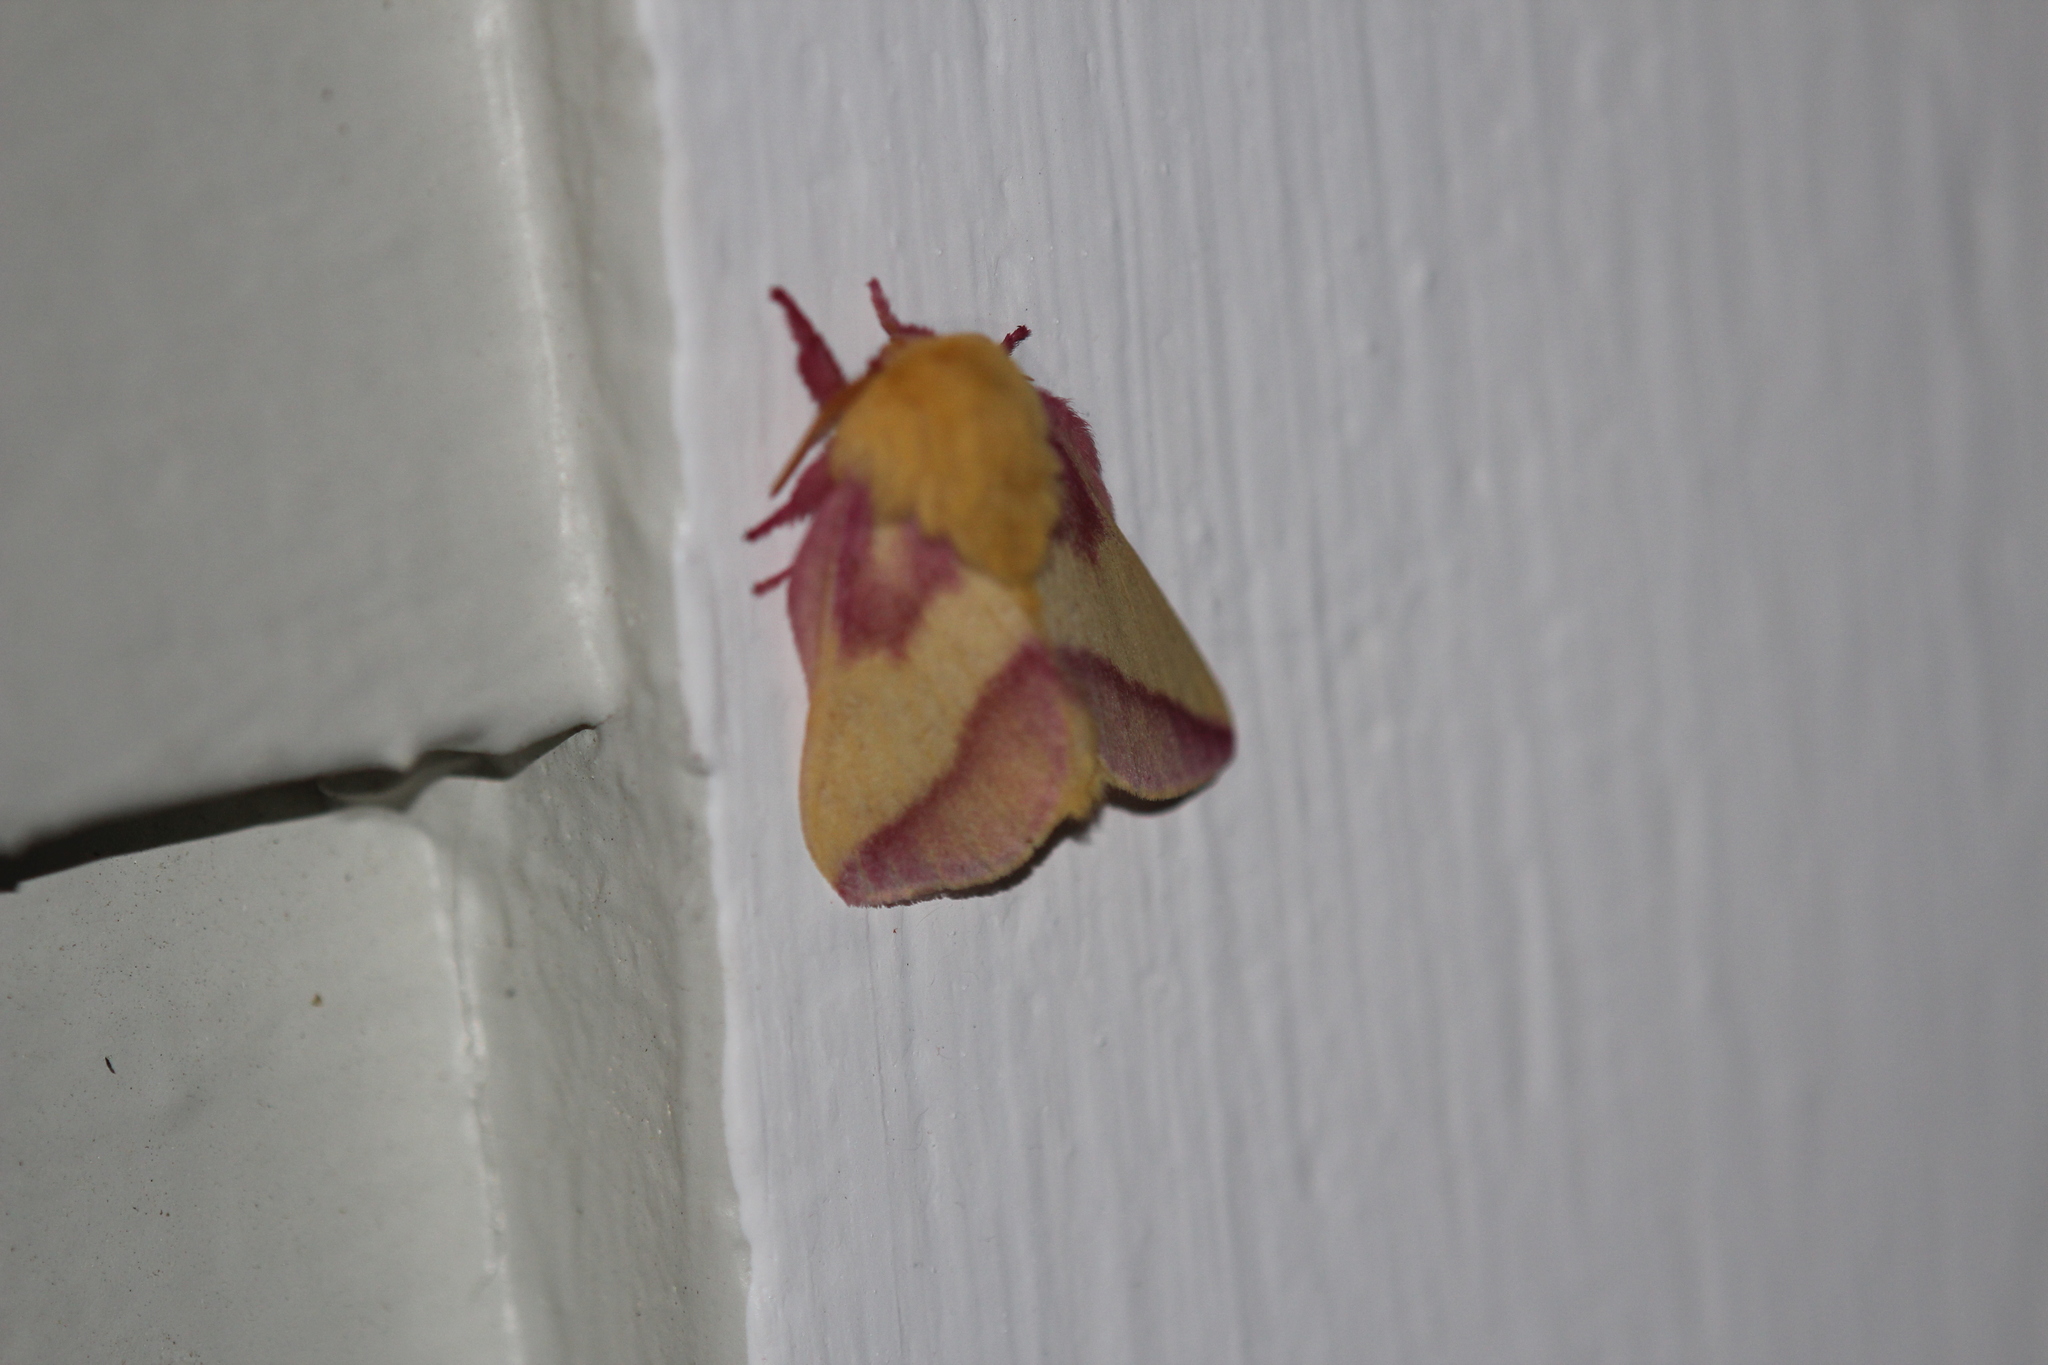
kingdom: Animalia
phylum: Arthropoda
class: Insecta
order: Lepidoptera
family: Saturniidae
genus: Dryocampa
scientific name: Dryocampa rubicunda
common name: Rosy maple moth
